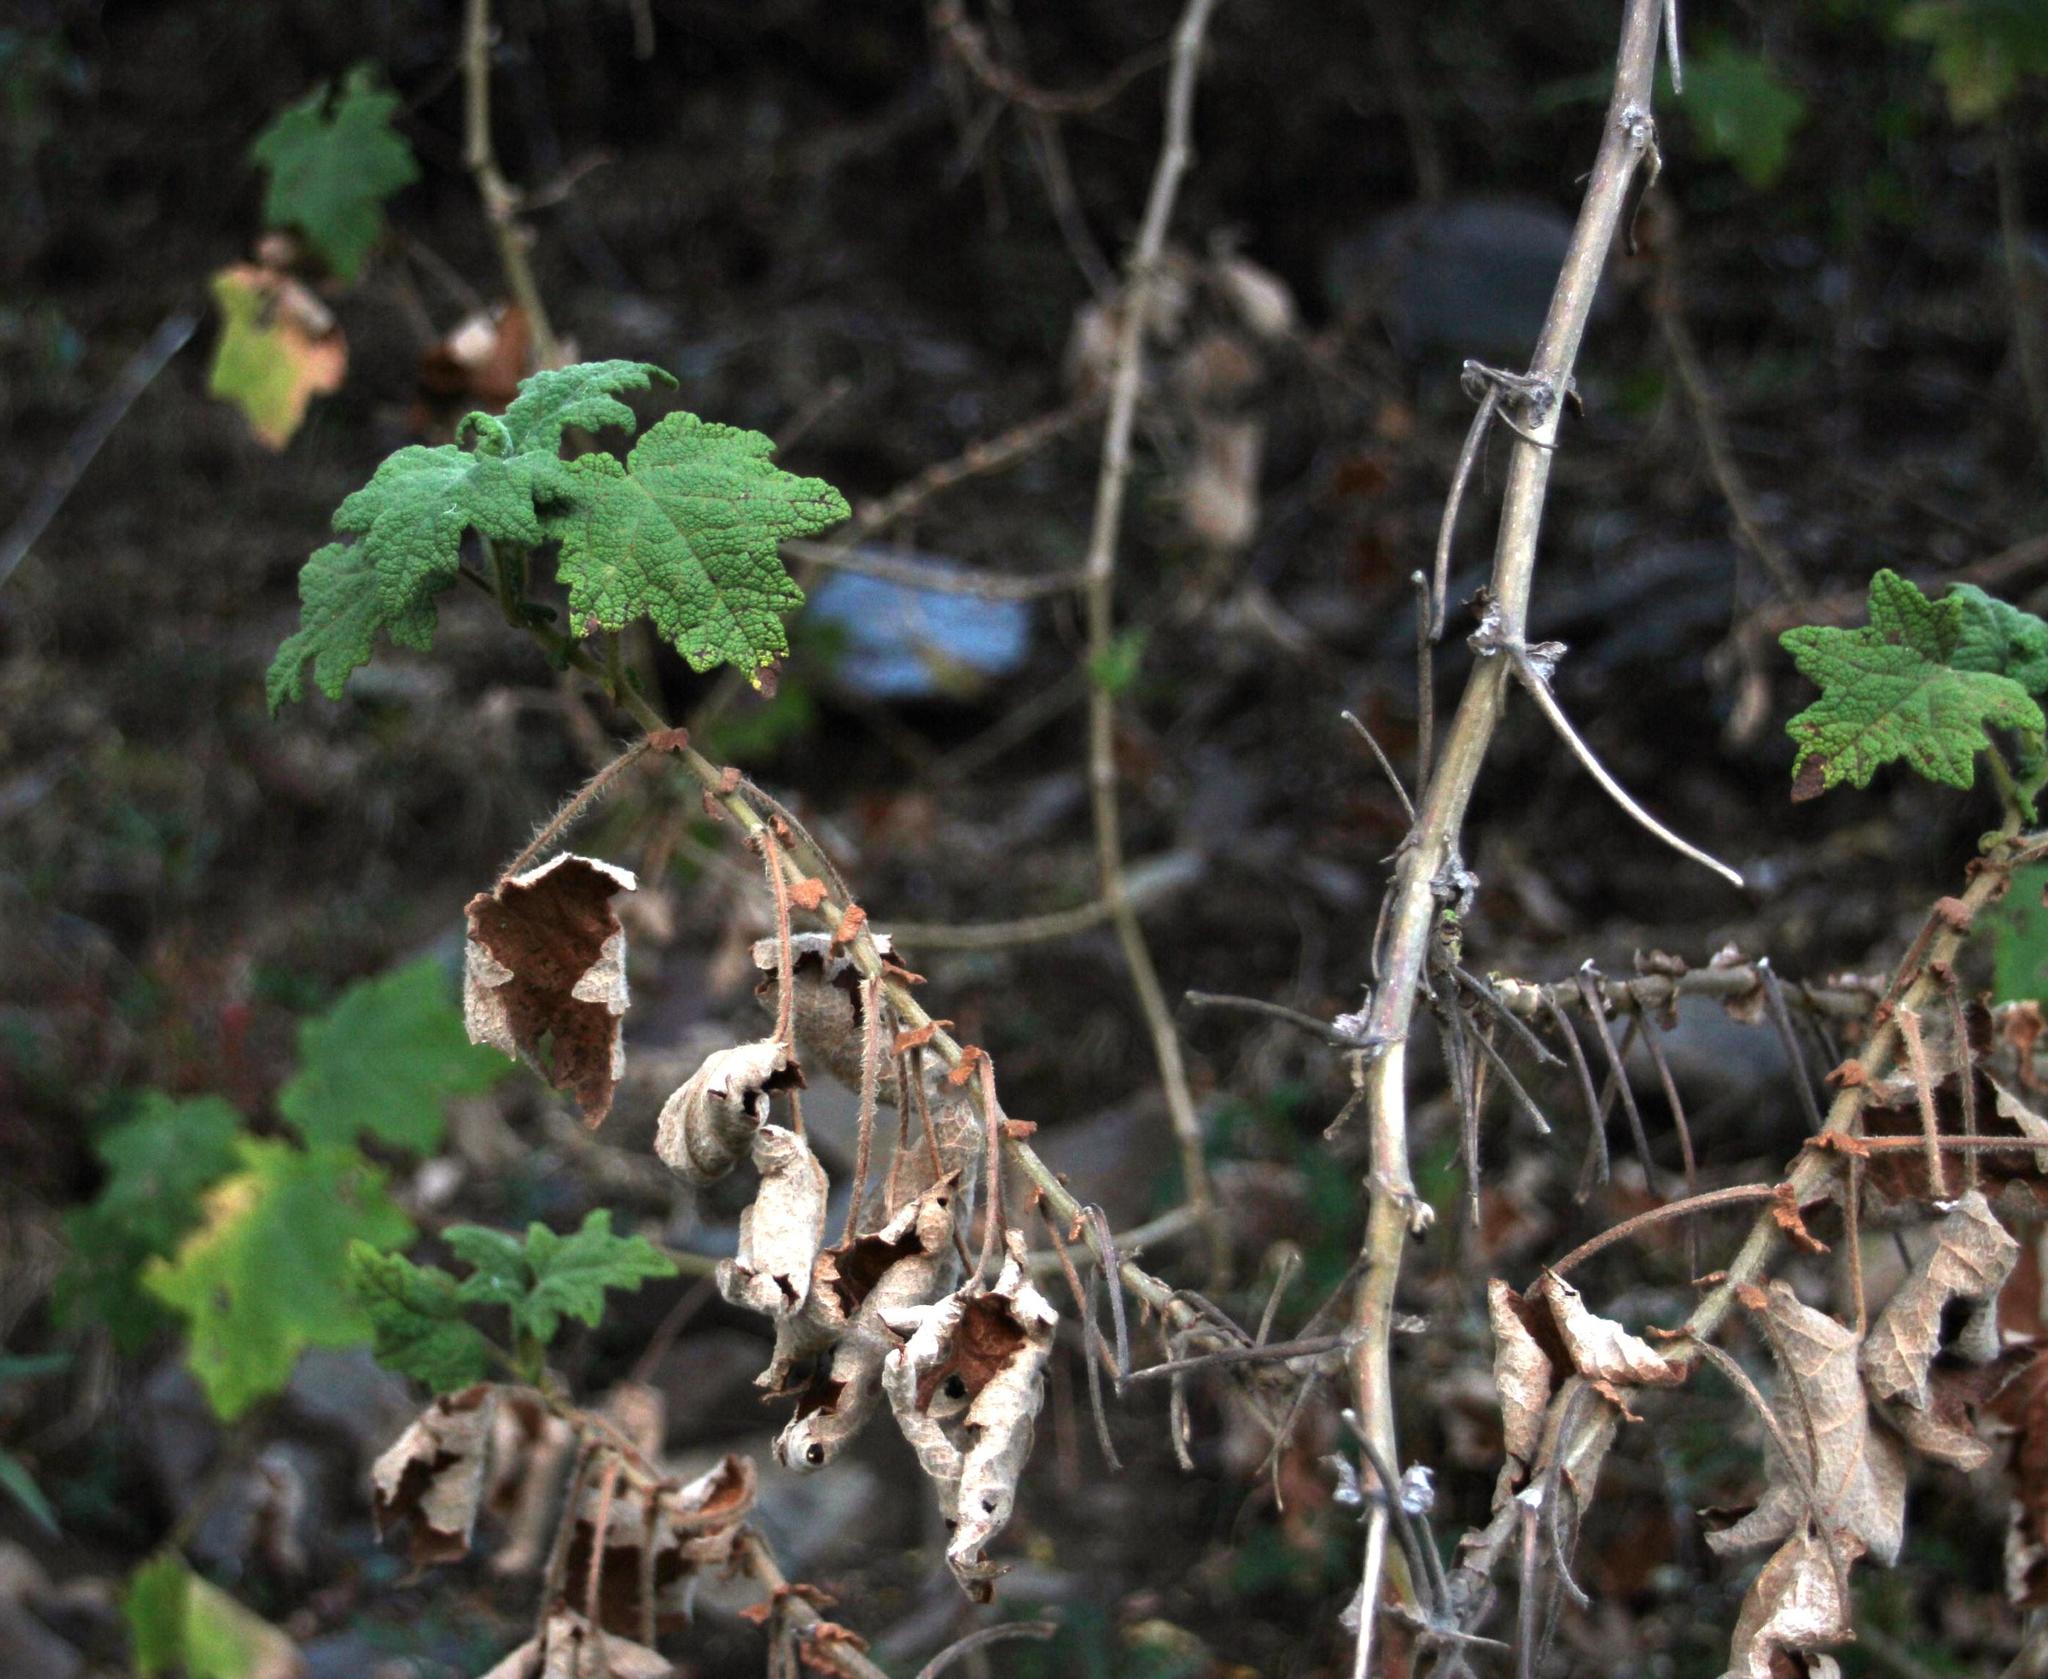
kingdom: Plantae
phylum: Tracheophyta
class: Magnoliopsida
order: Asterales
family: Asteraceae
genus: Jungia
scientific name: Jungia rugosa
